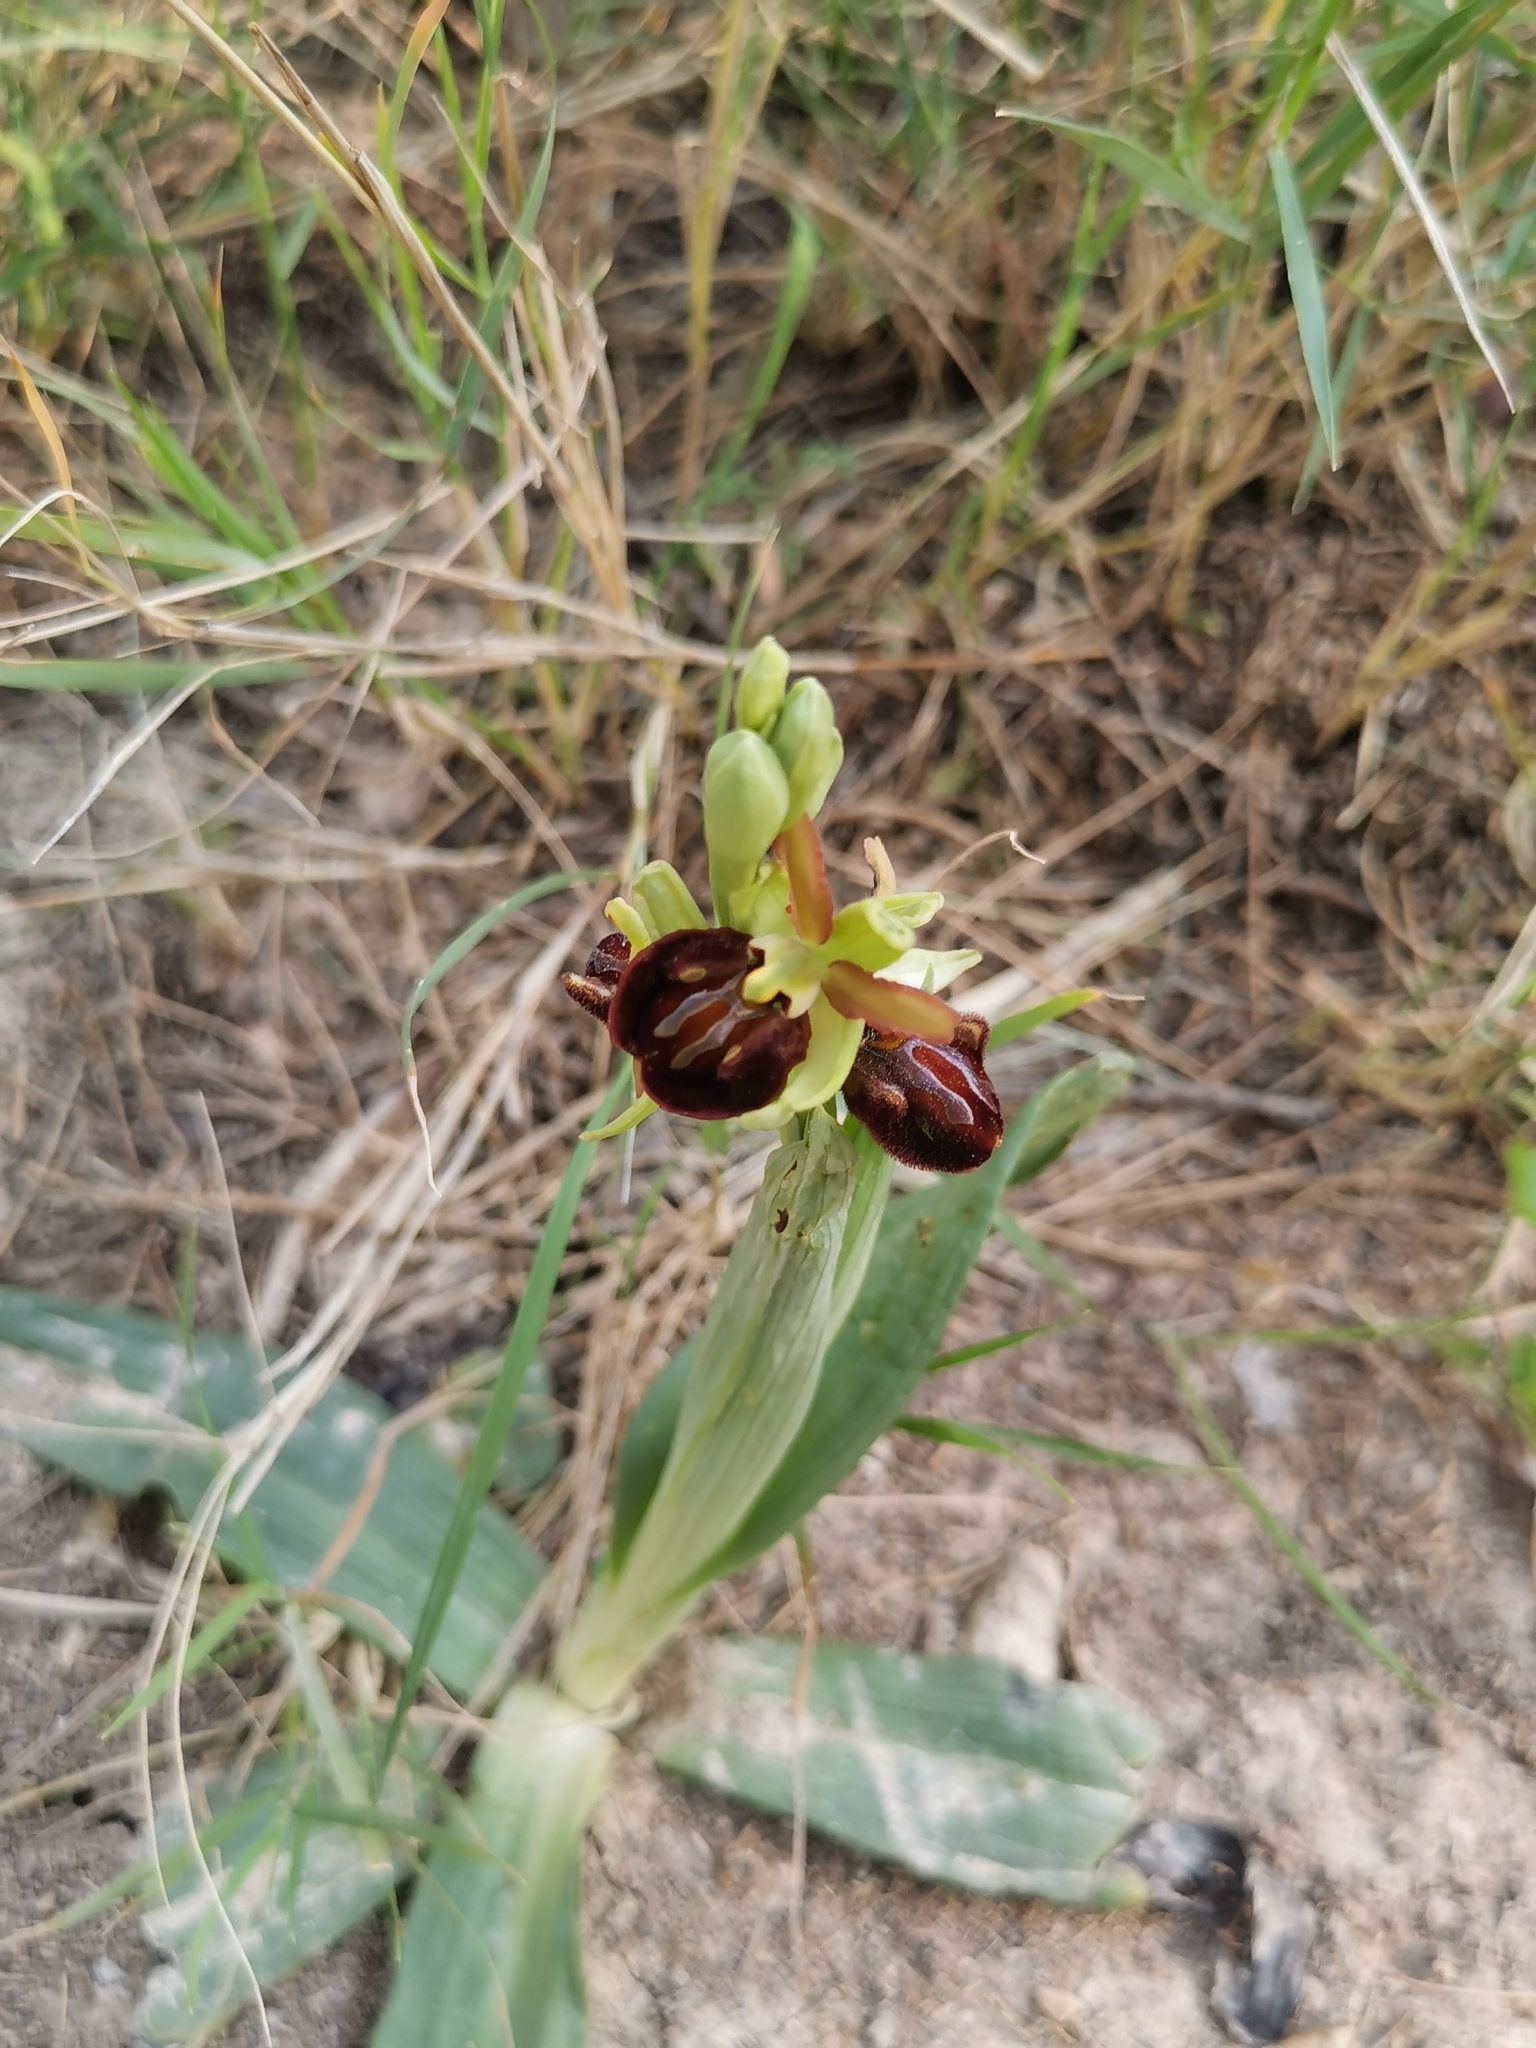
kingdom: Plantae
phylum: Tracheophyta
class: Liliopsida
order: Asparagales
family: Orchidaceae
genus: Ophrys
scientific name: Ophrys sphegodes
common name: Early spider-orchid
